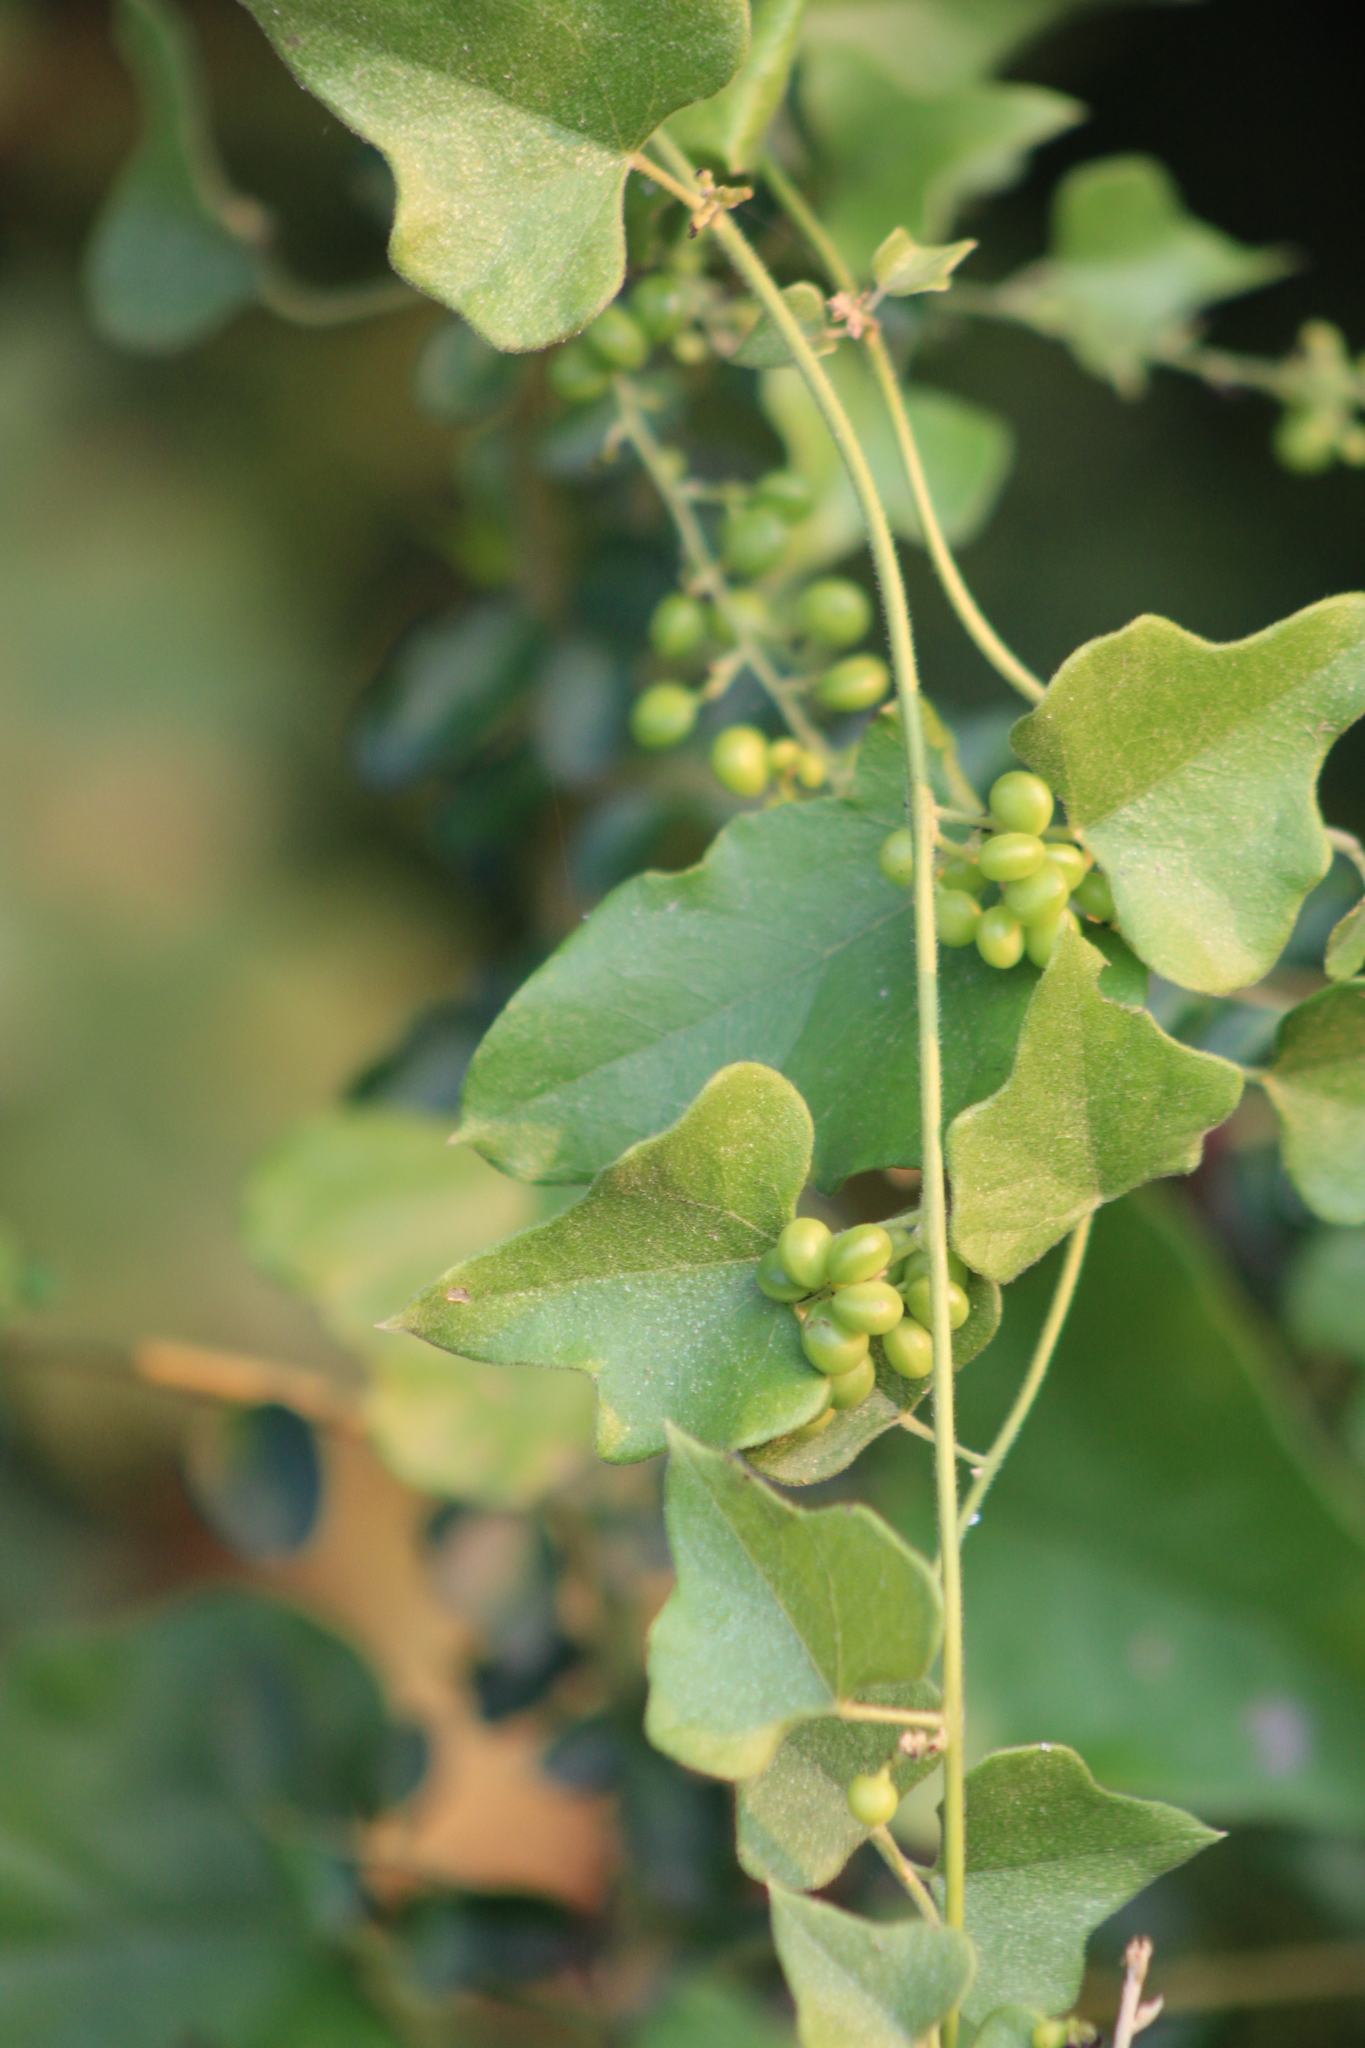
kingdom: Plantae
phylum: Tracheophyta
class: Magnoliopsida
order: Ranunculales
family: Menispermaceae
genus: Cocculus
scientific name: Cocculus carolinus
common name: Carolina moonseed
